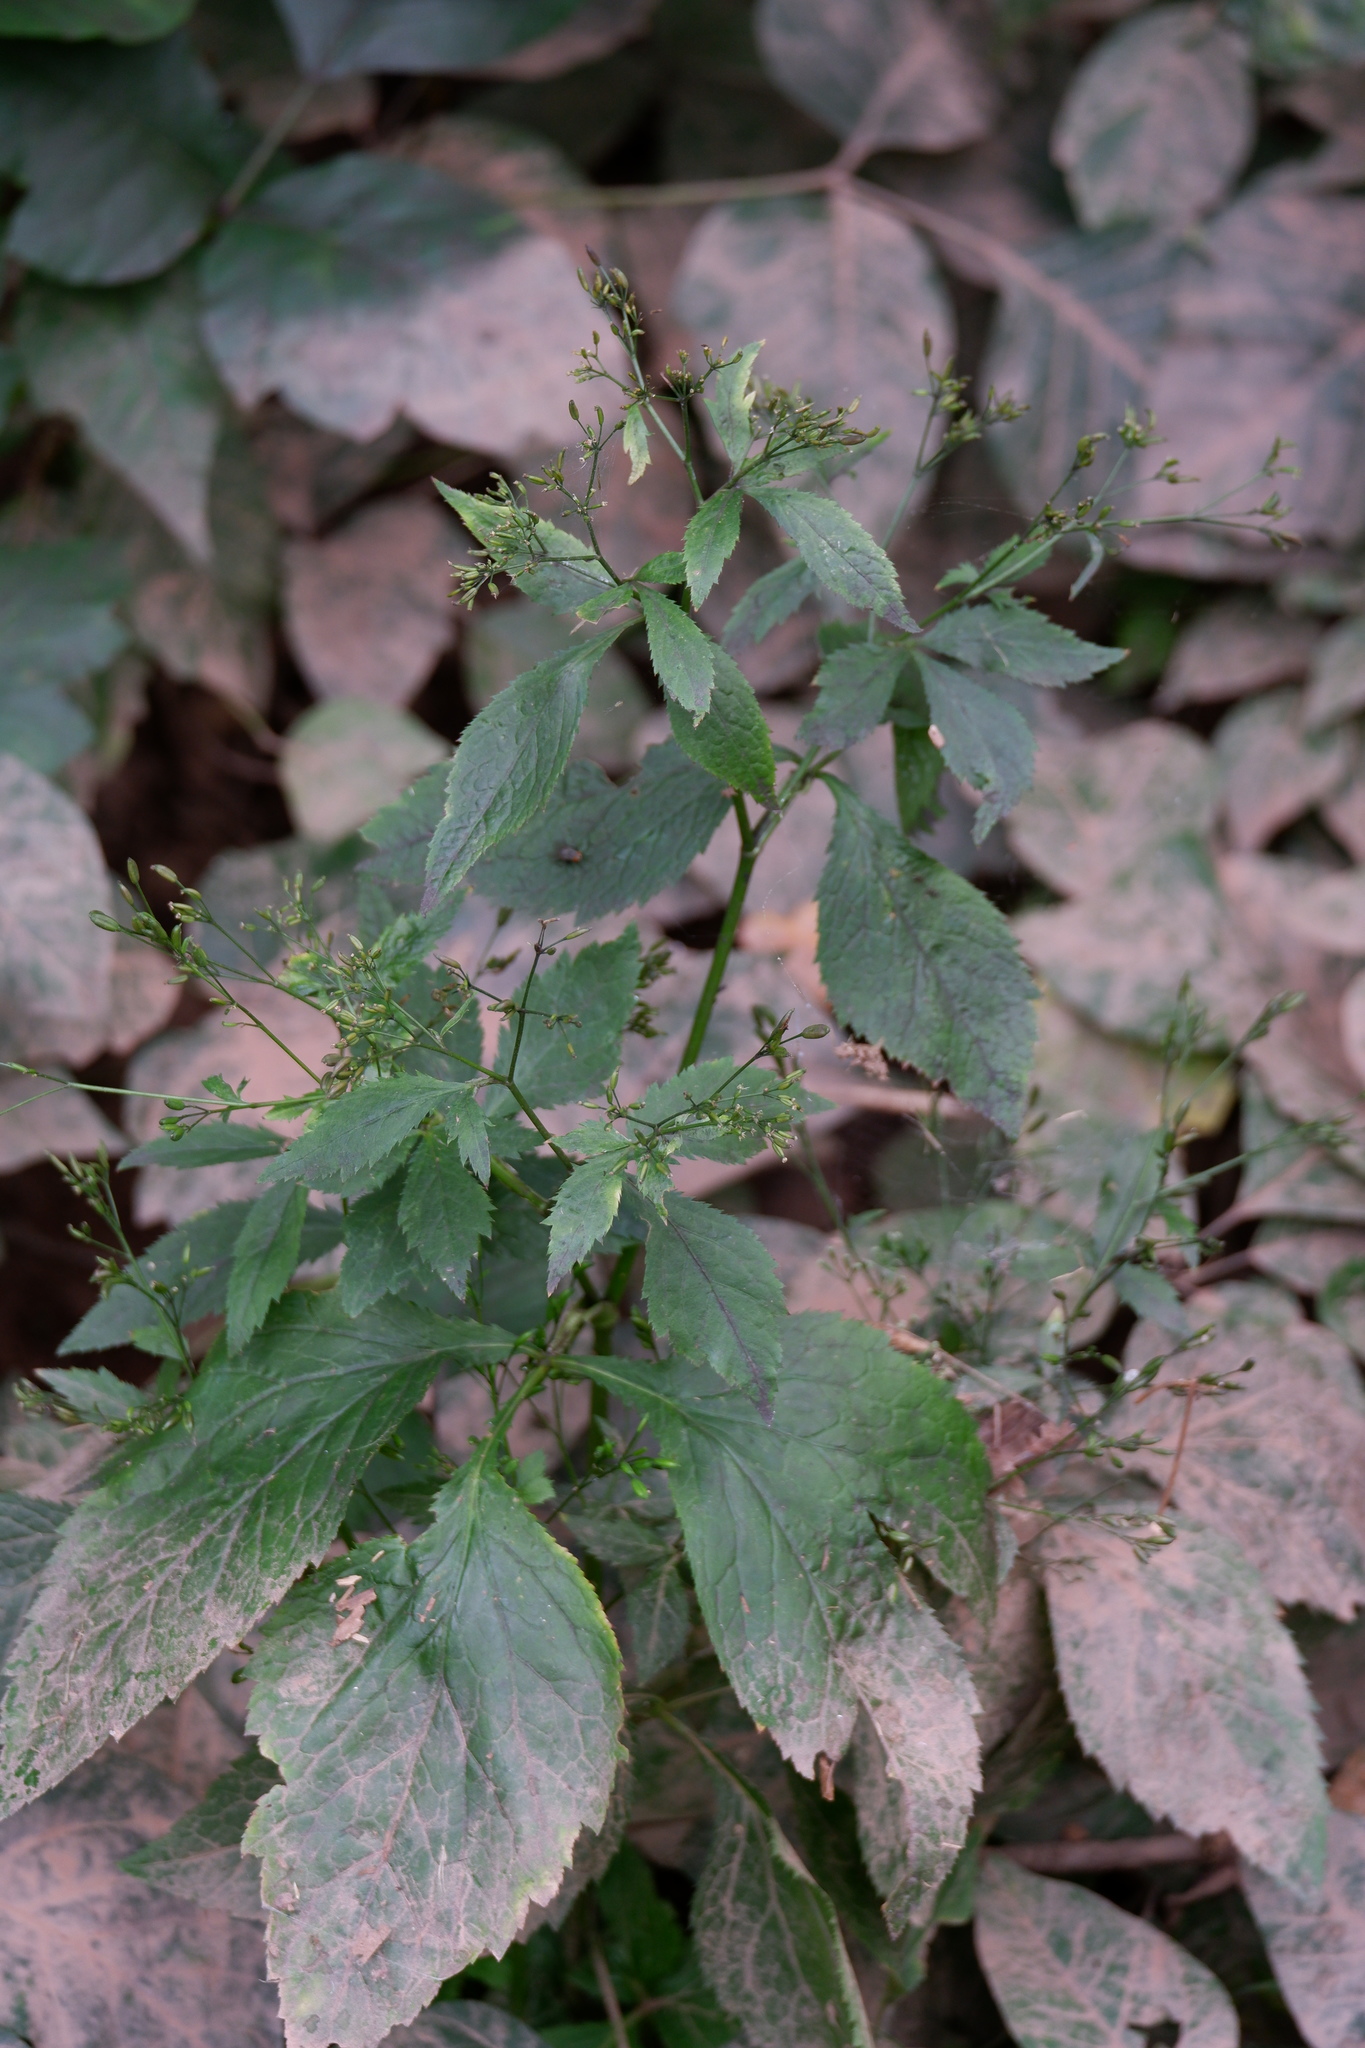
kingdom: Plantae
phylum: Tracheophyta
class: Magnoliopsida
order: Apiales
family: Apiaceae
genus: Cryptotaenia
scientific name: Cryptotaenia canadensis
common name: Honewort
